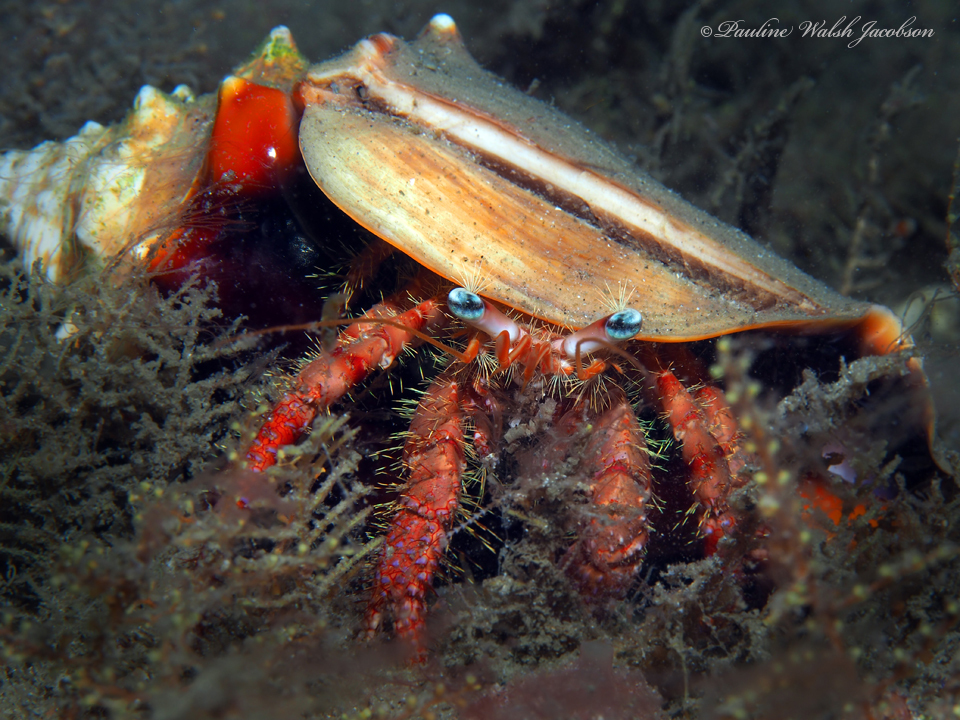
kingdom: Animalia
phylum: Arthropoda
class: Malacostraca
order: Decapoda
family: Diogenidae
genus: Dardanus
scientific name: Dardanus fucosus
